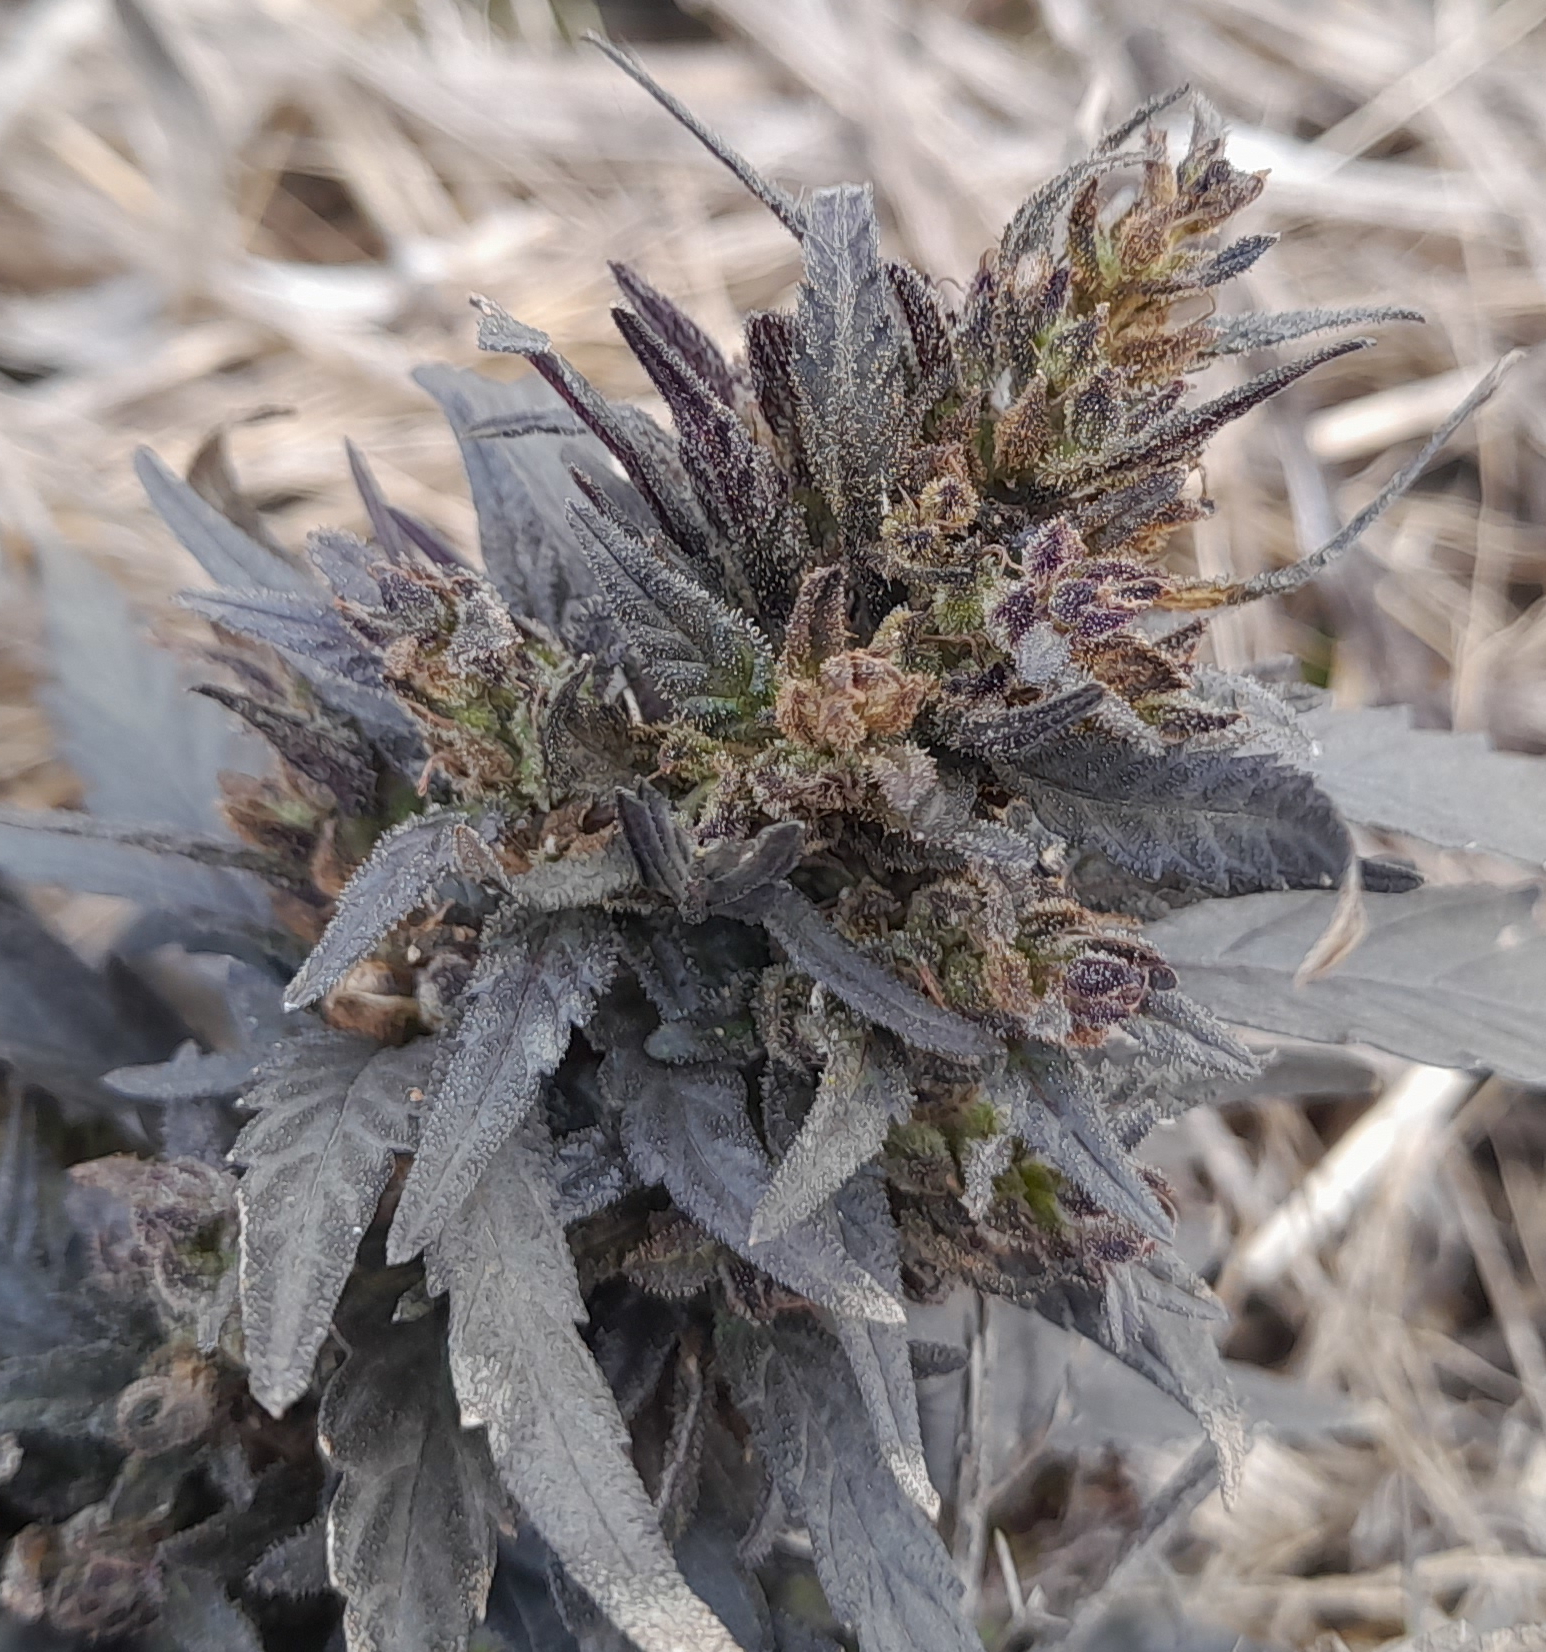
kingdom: Plantae
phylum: Tracheophyta
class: Magnoliopsida
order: Rosales
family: Cannabaceae
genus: Cannabis
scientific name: Cannabis sativa
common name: Hemp
